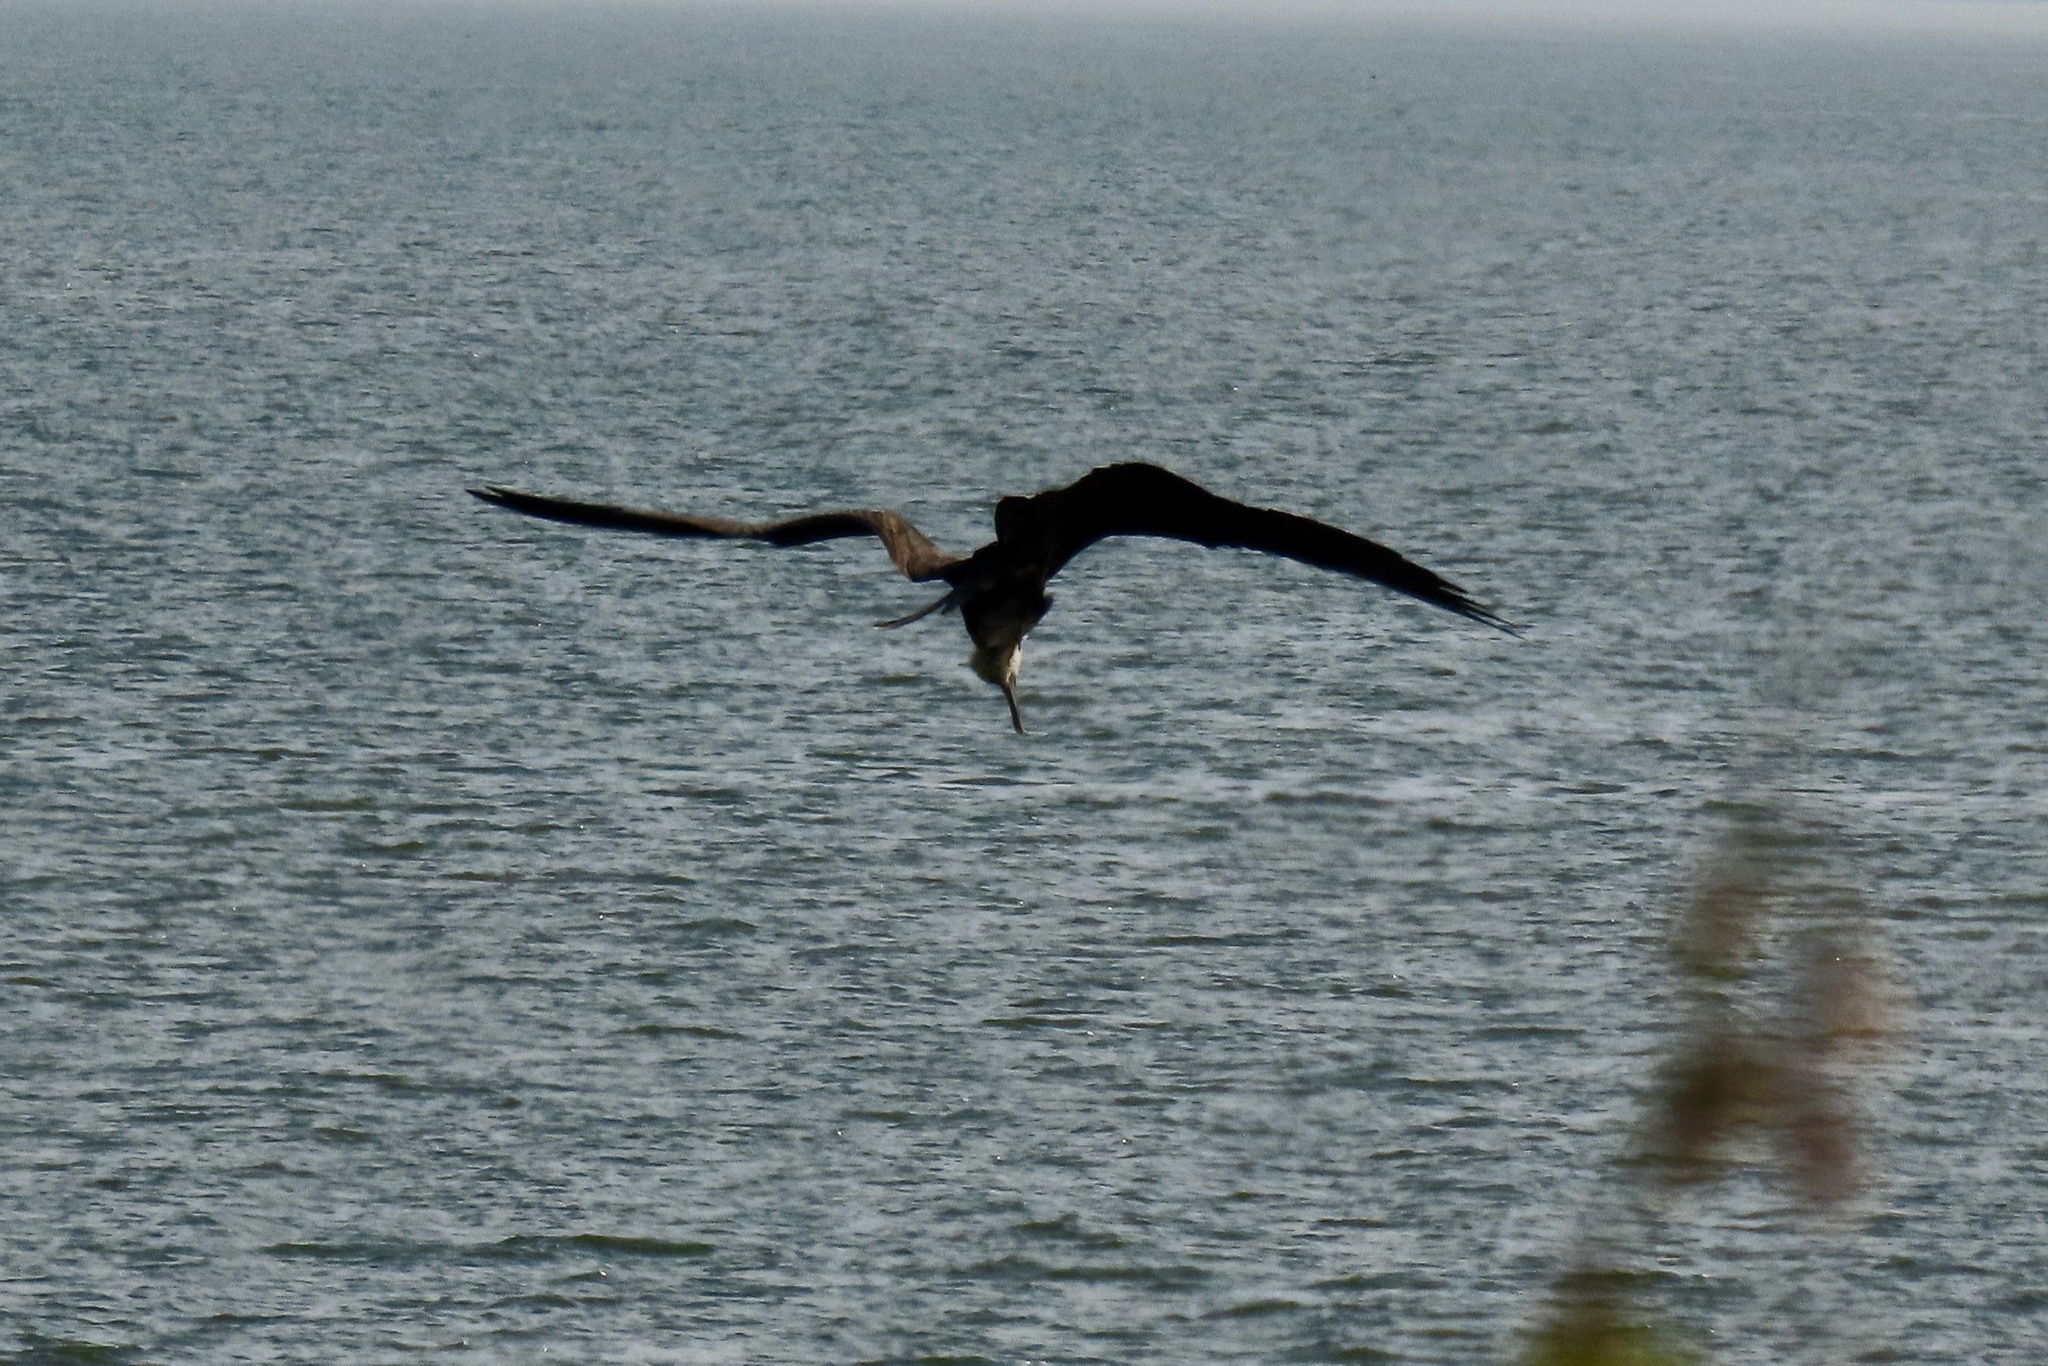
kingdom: Animalia
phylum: Chordata
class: Aves
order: Suliformes
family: Fregatidae
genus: Fregata
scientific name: Fregata magnificens
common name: Magnificent frigatebird
